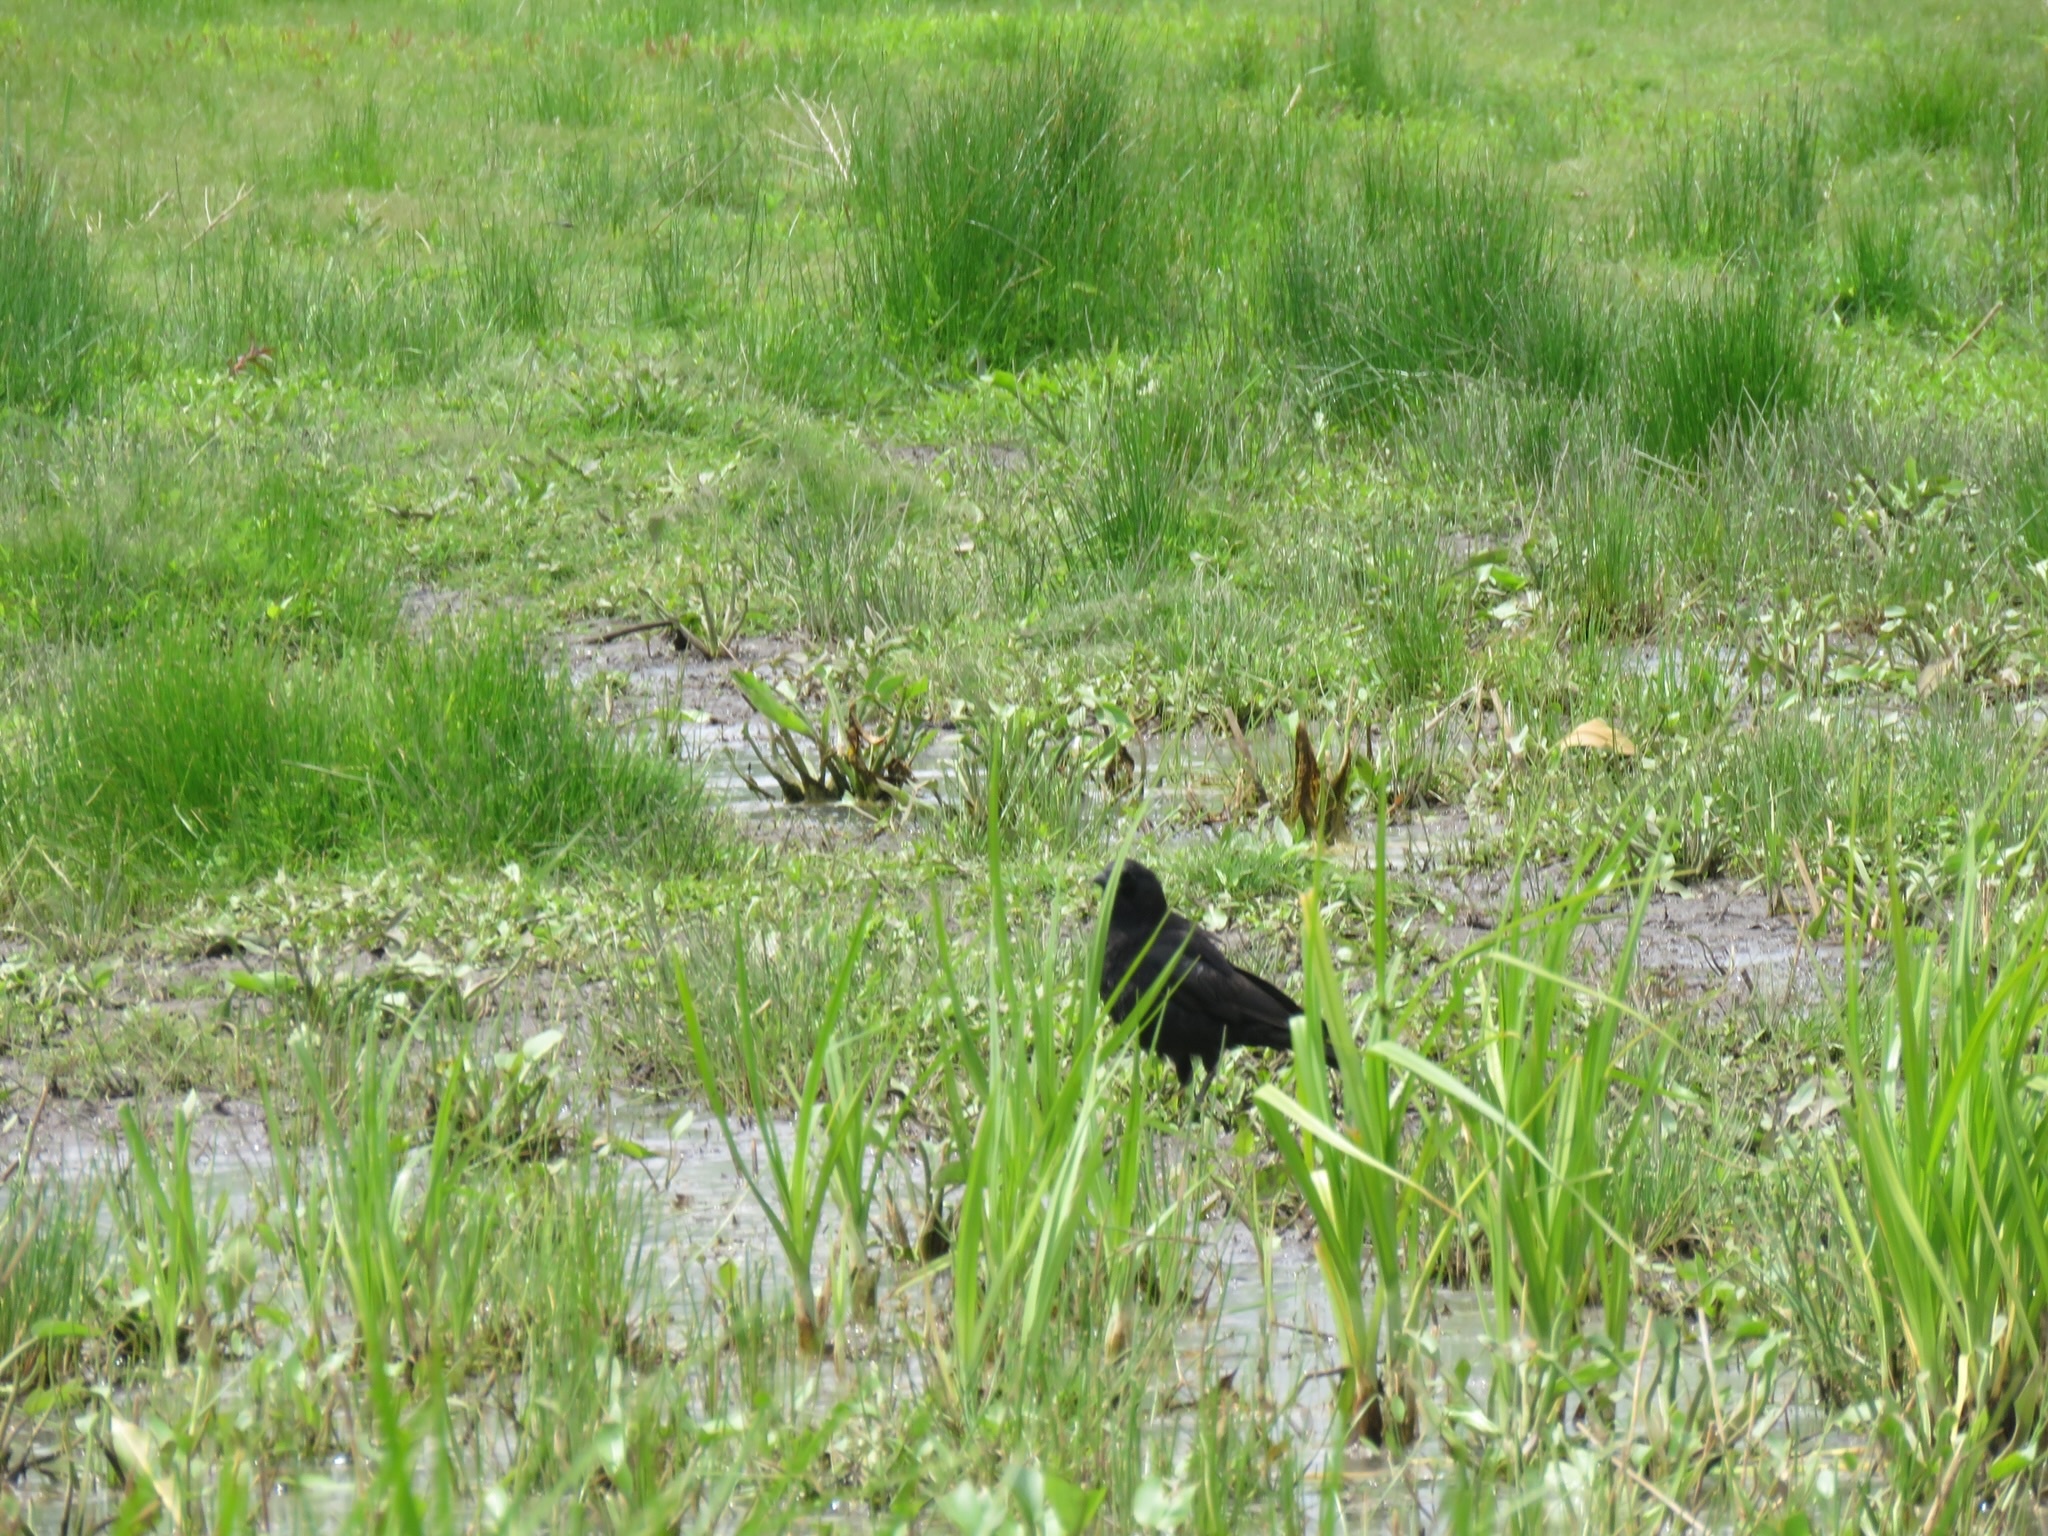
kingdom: Animalia
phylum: Chordata
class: Aves
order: Passeriformes
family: Corvidae
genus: Corvus
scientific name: Corvus brachyrhynchos
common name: American crow
